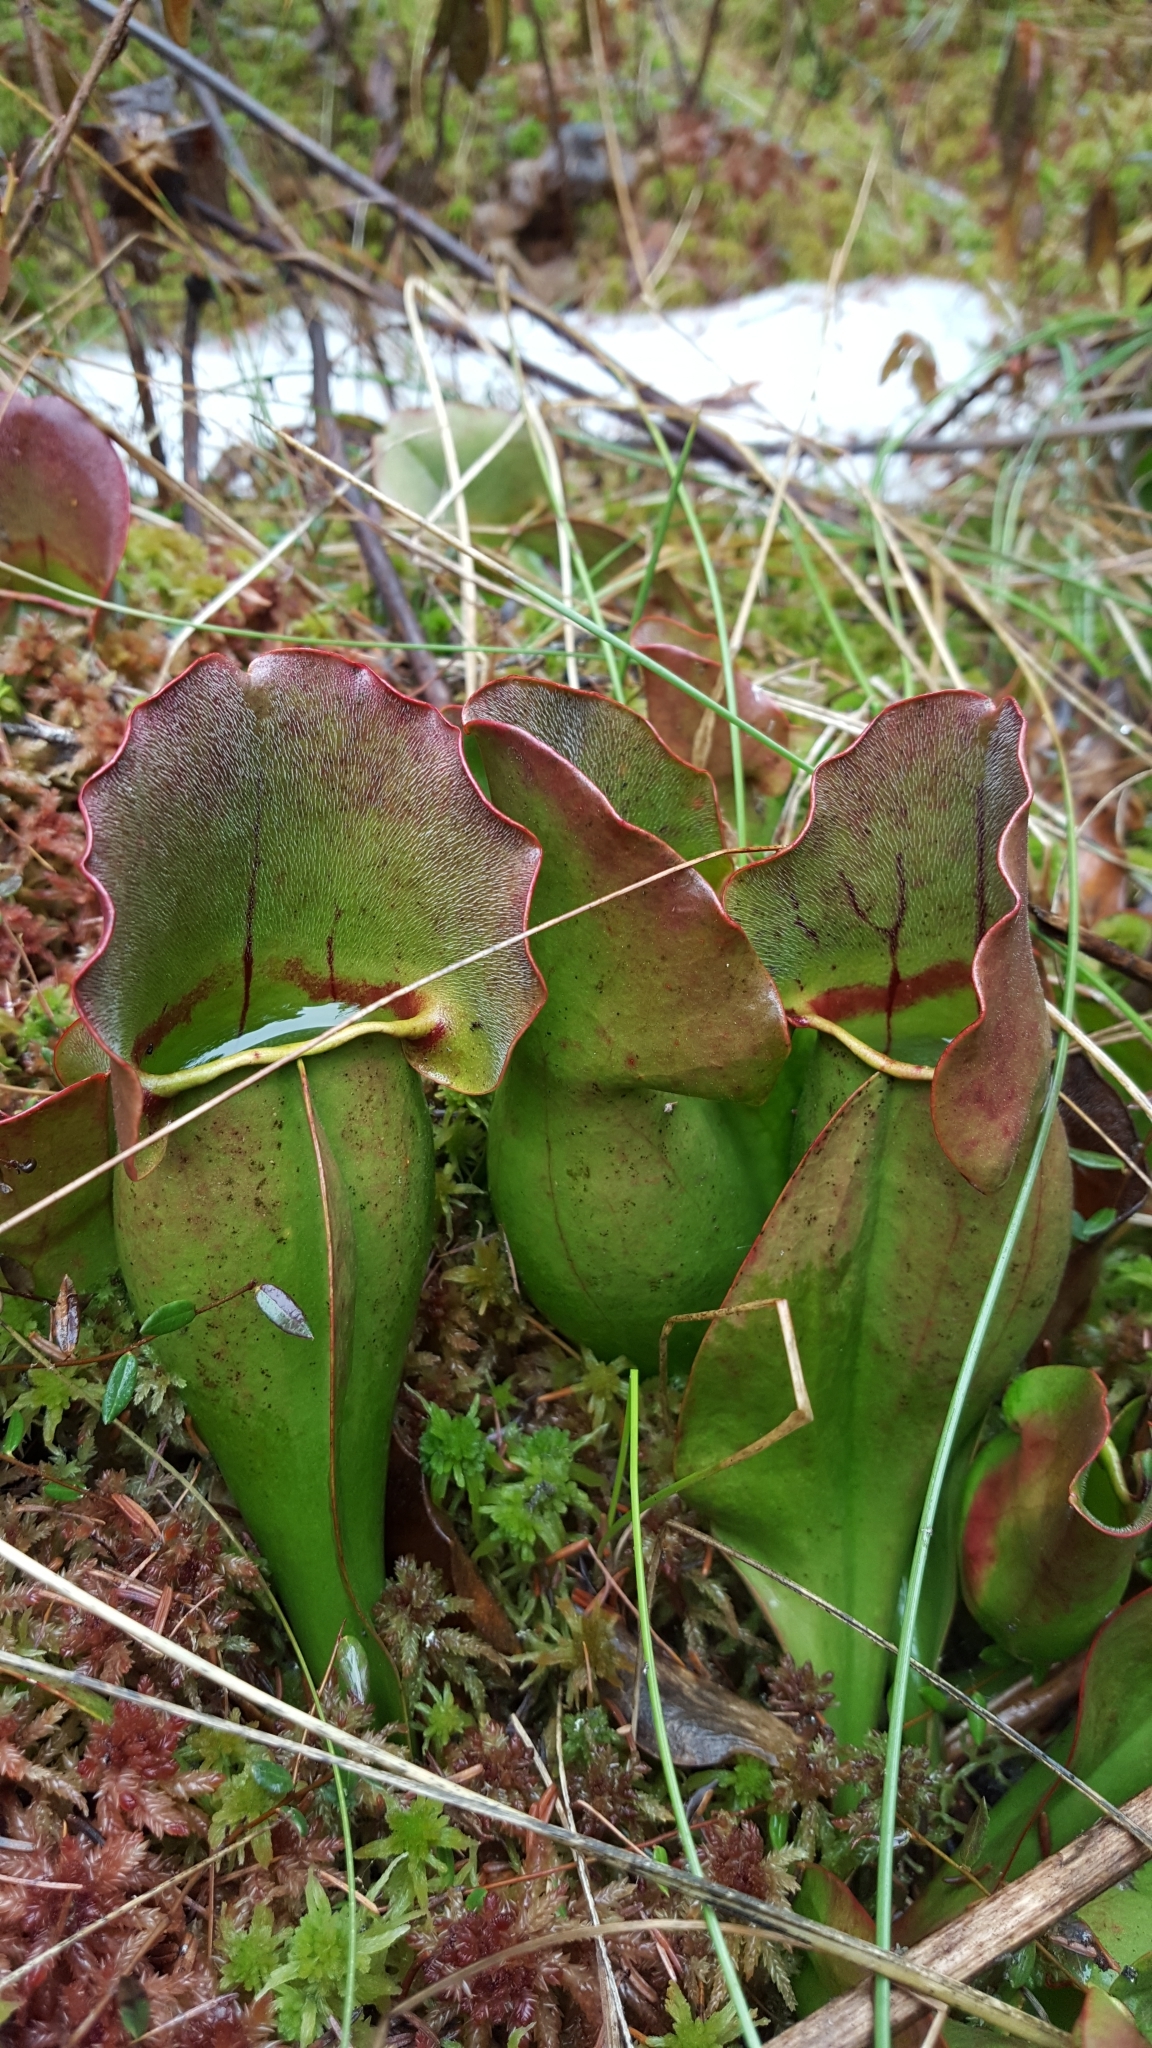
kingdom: Plantae
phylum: Tracheophyta
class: Magnoliopsida
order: Ericales
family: Sarraceniaceae
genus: Sarracenia
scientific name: Sarracenia purpurea
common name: Pitcherplant
